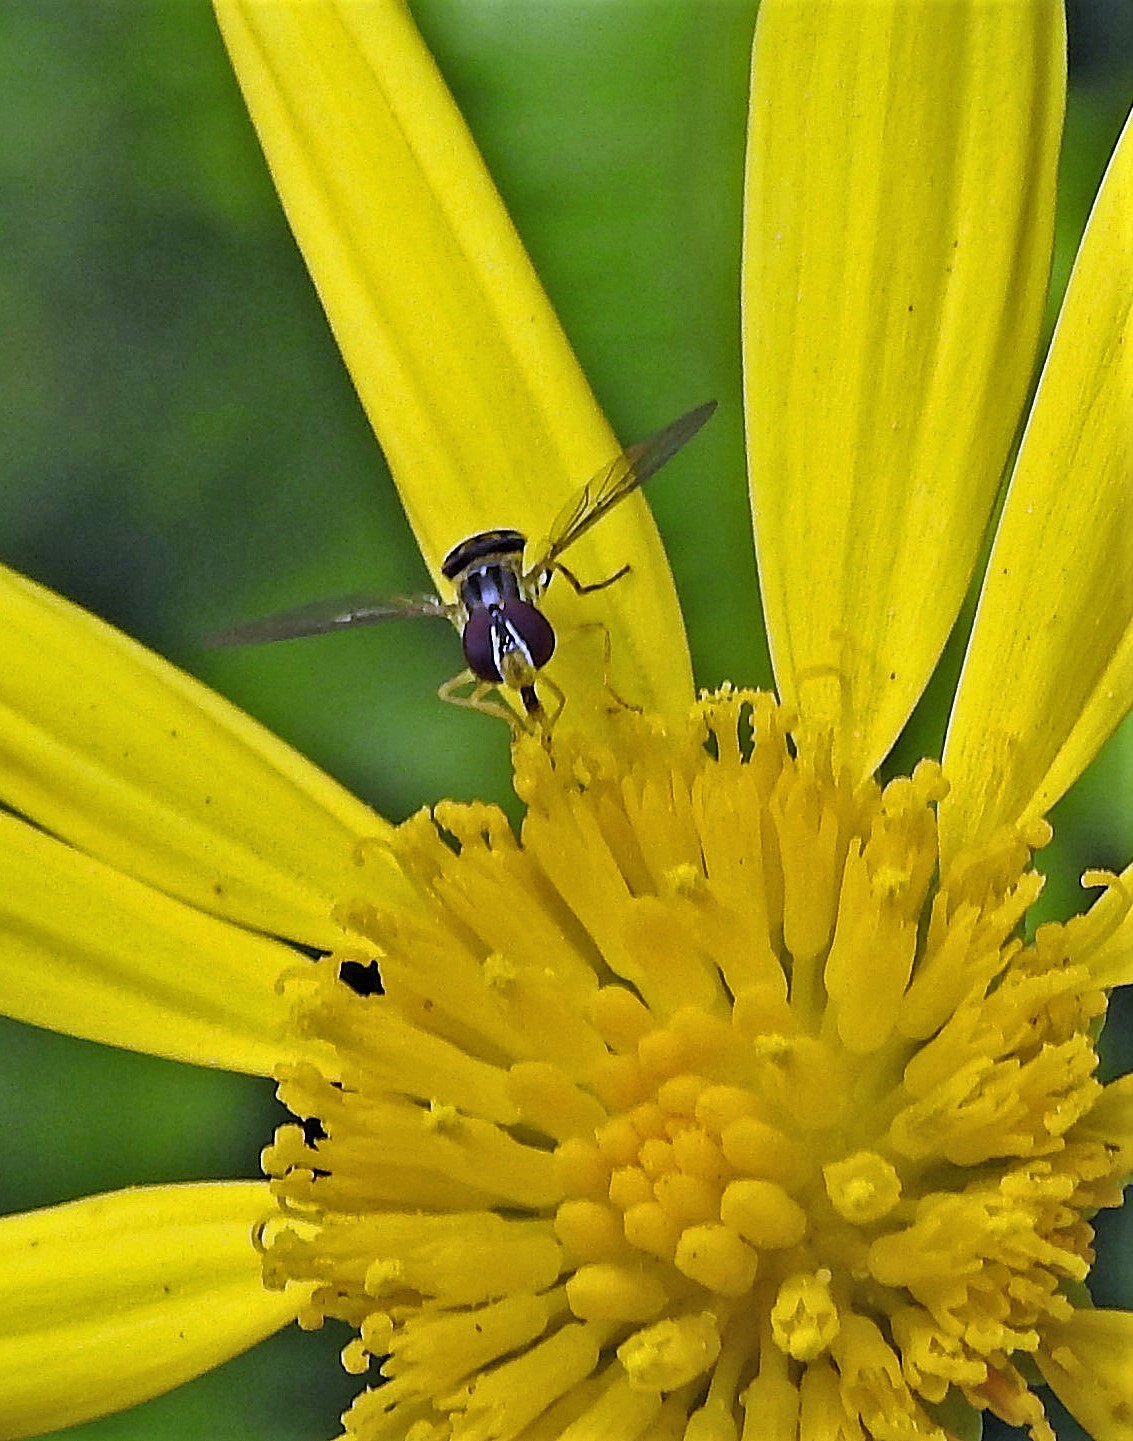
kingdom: Animalia
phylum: Arthropoda
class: Insecta
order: Diptera
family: Syrphidae
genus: Toxomerus
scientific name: Toxomerus virgulatus
